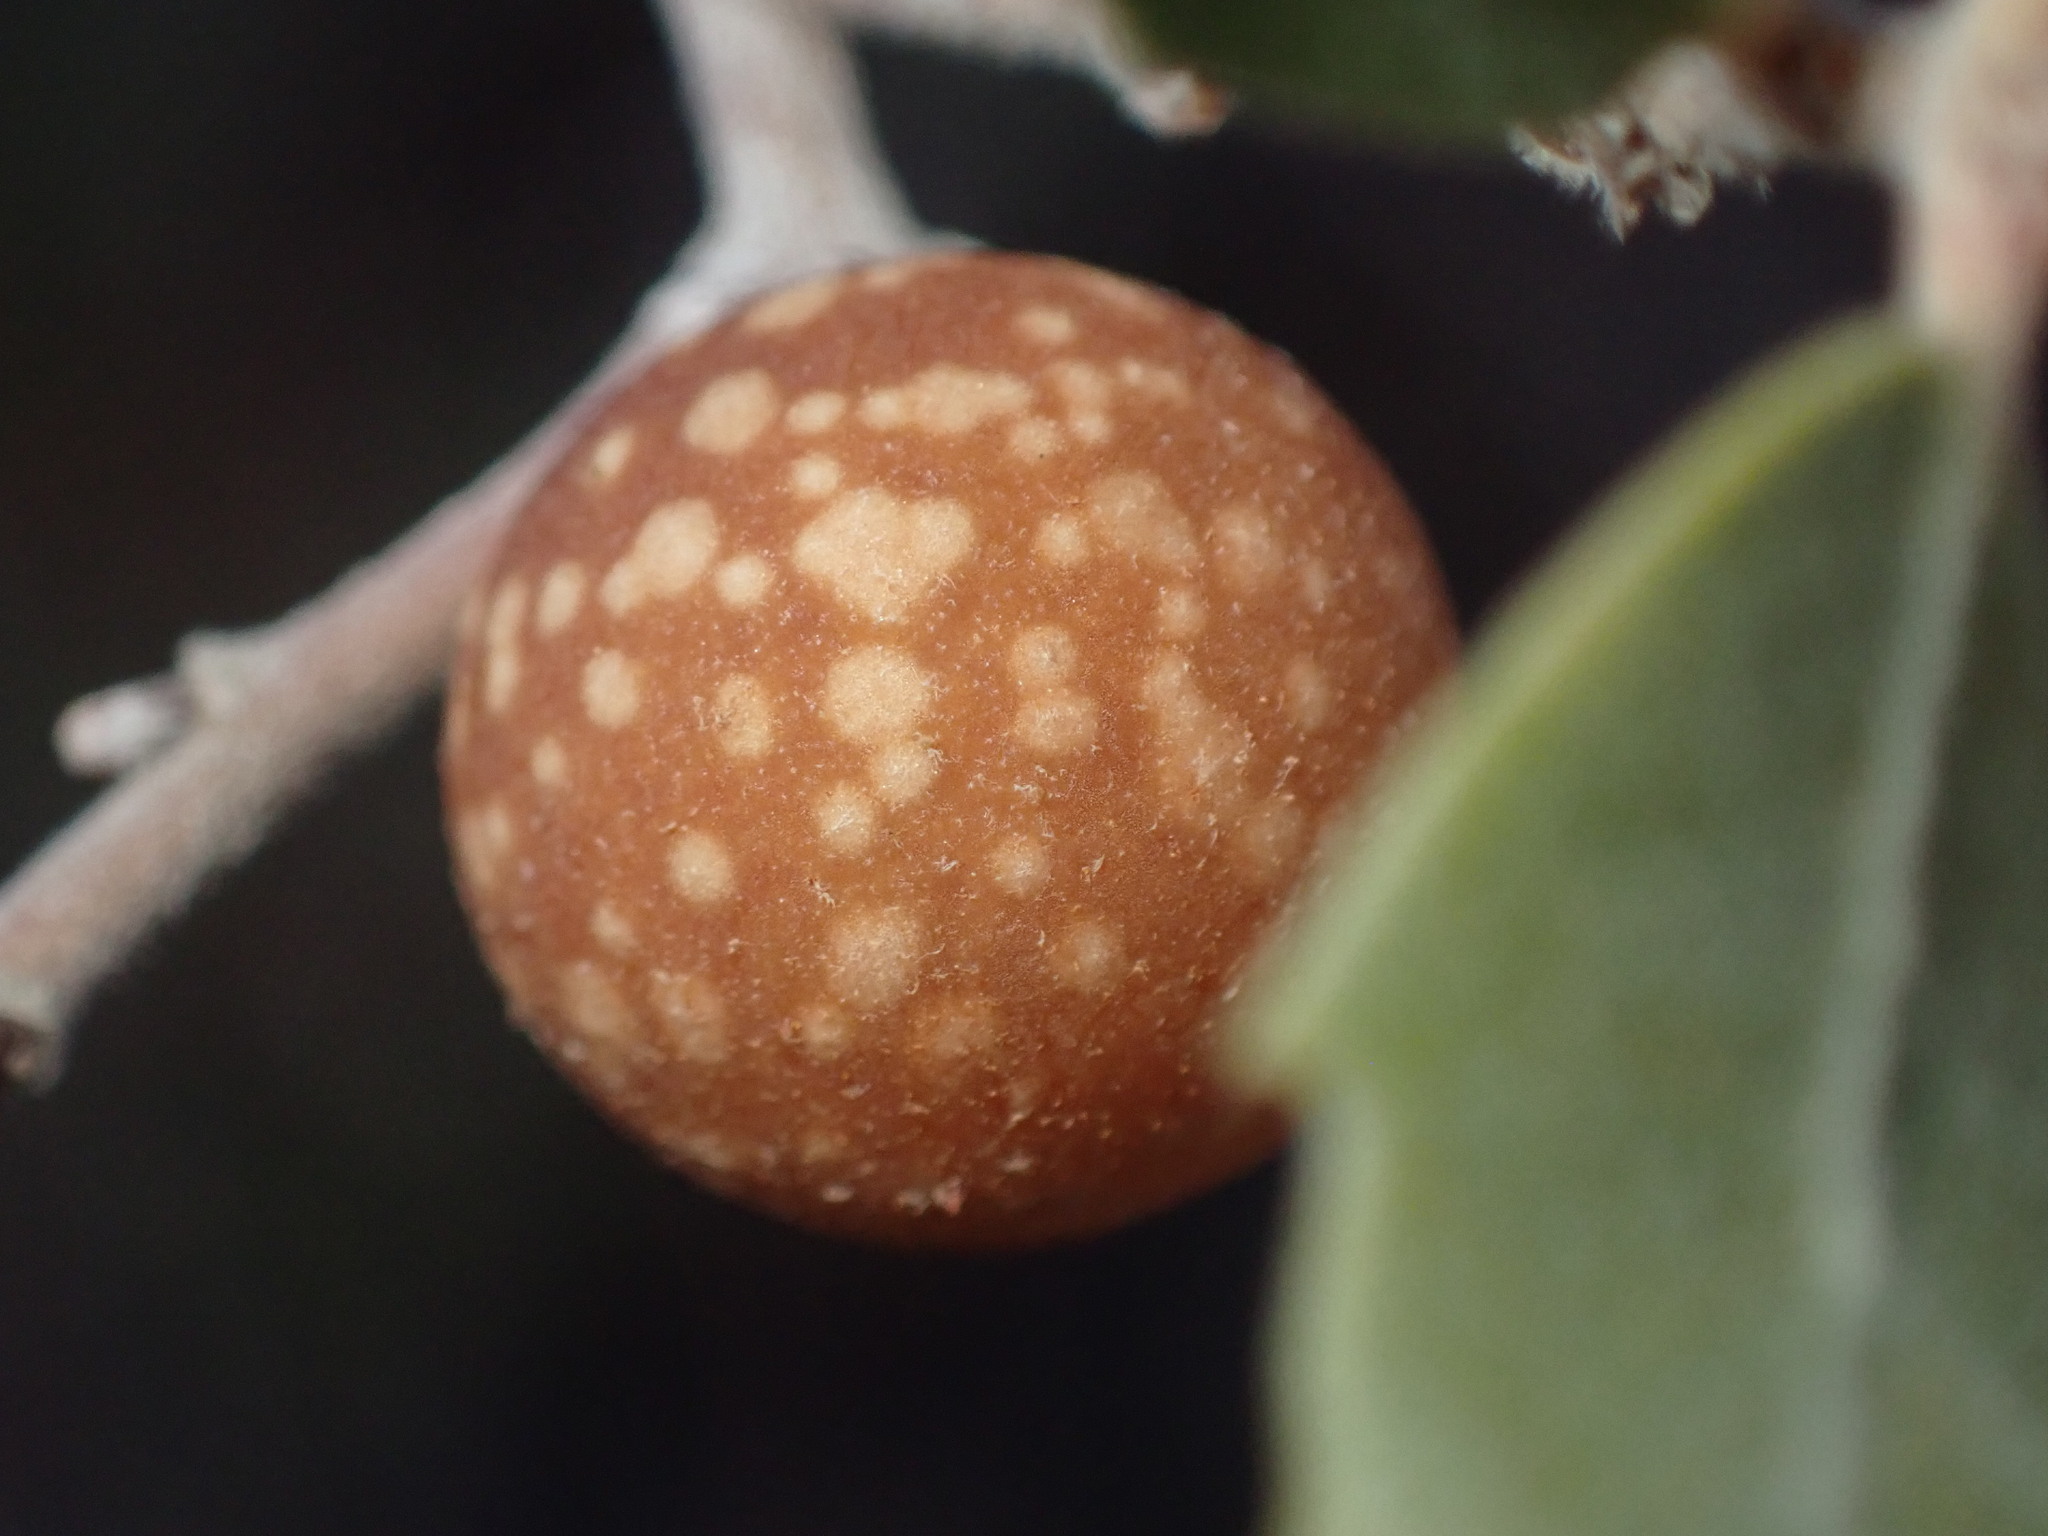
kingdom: Animalia
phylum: Arthropoda
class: Insecta
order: Hymenoptera
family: Cynipidae
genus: Burnettweldia
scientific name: Burnettweldia
